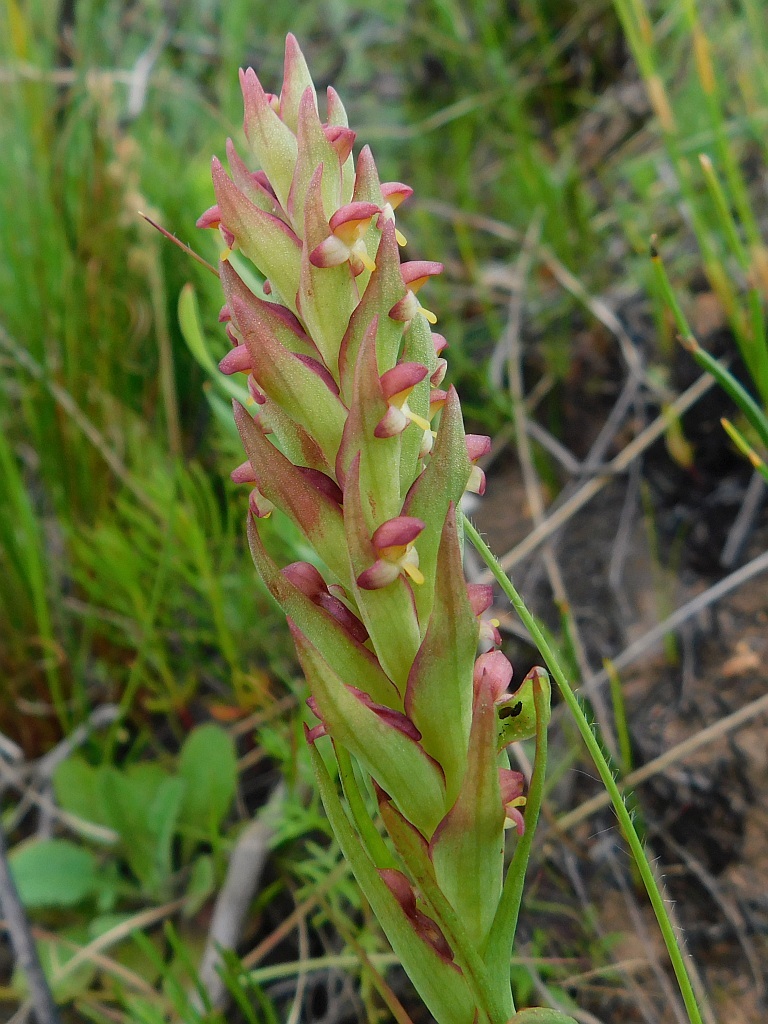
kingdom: Plantae
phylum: Tracheophyta
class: Liliopsida
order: Asparagales
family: Orchidaceae
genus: Disa
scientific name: Disa bracteata
